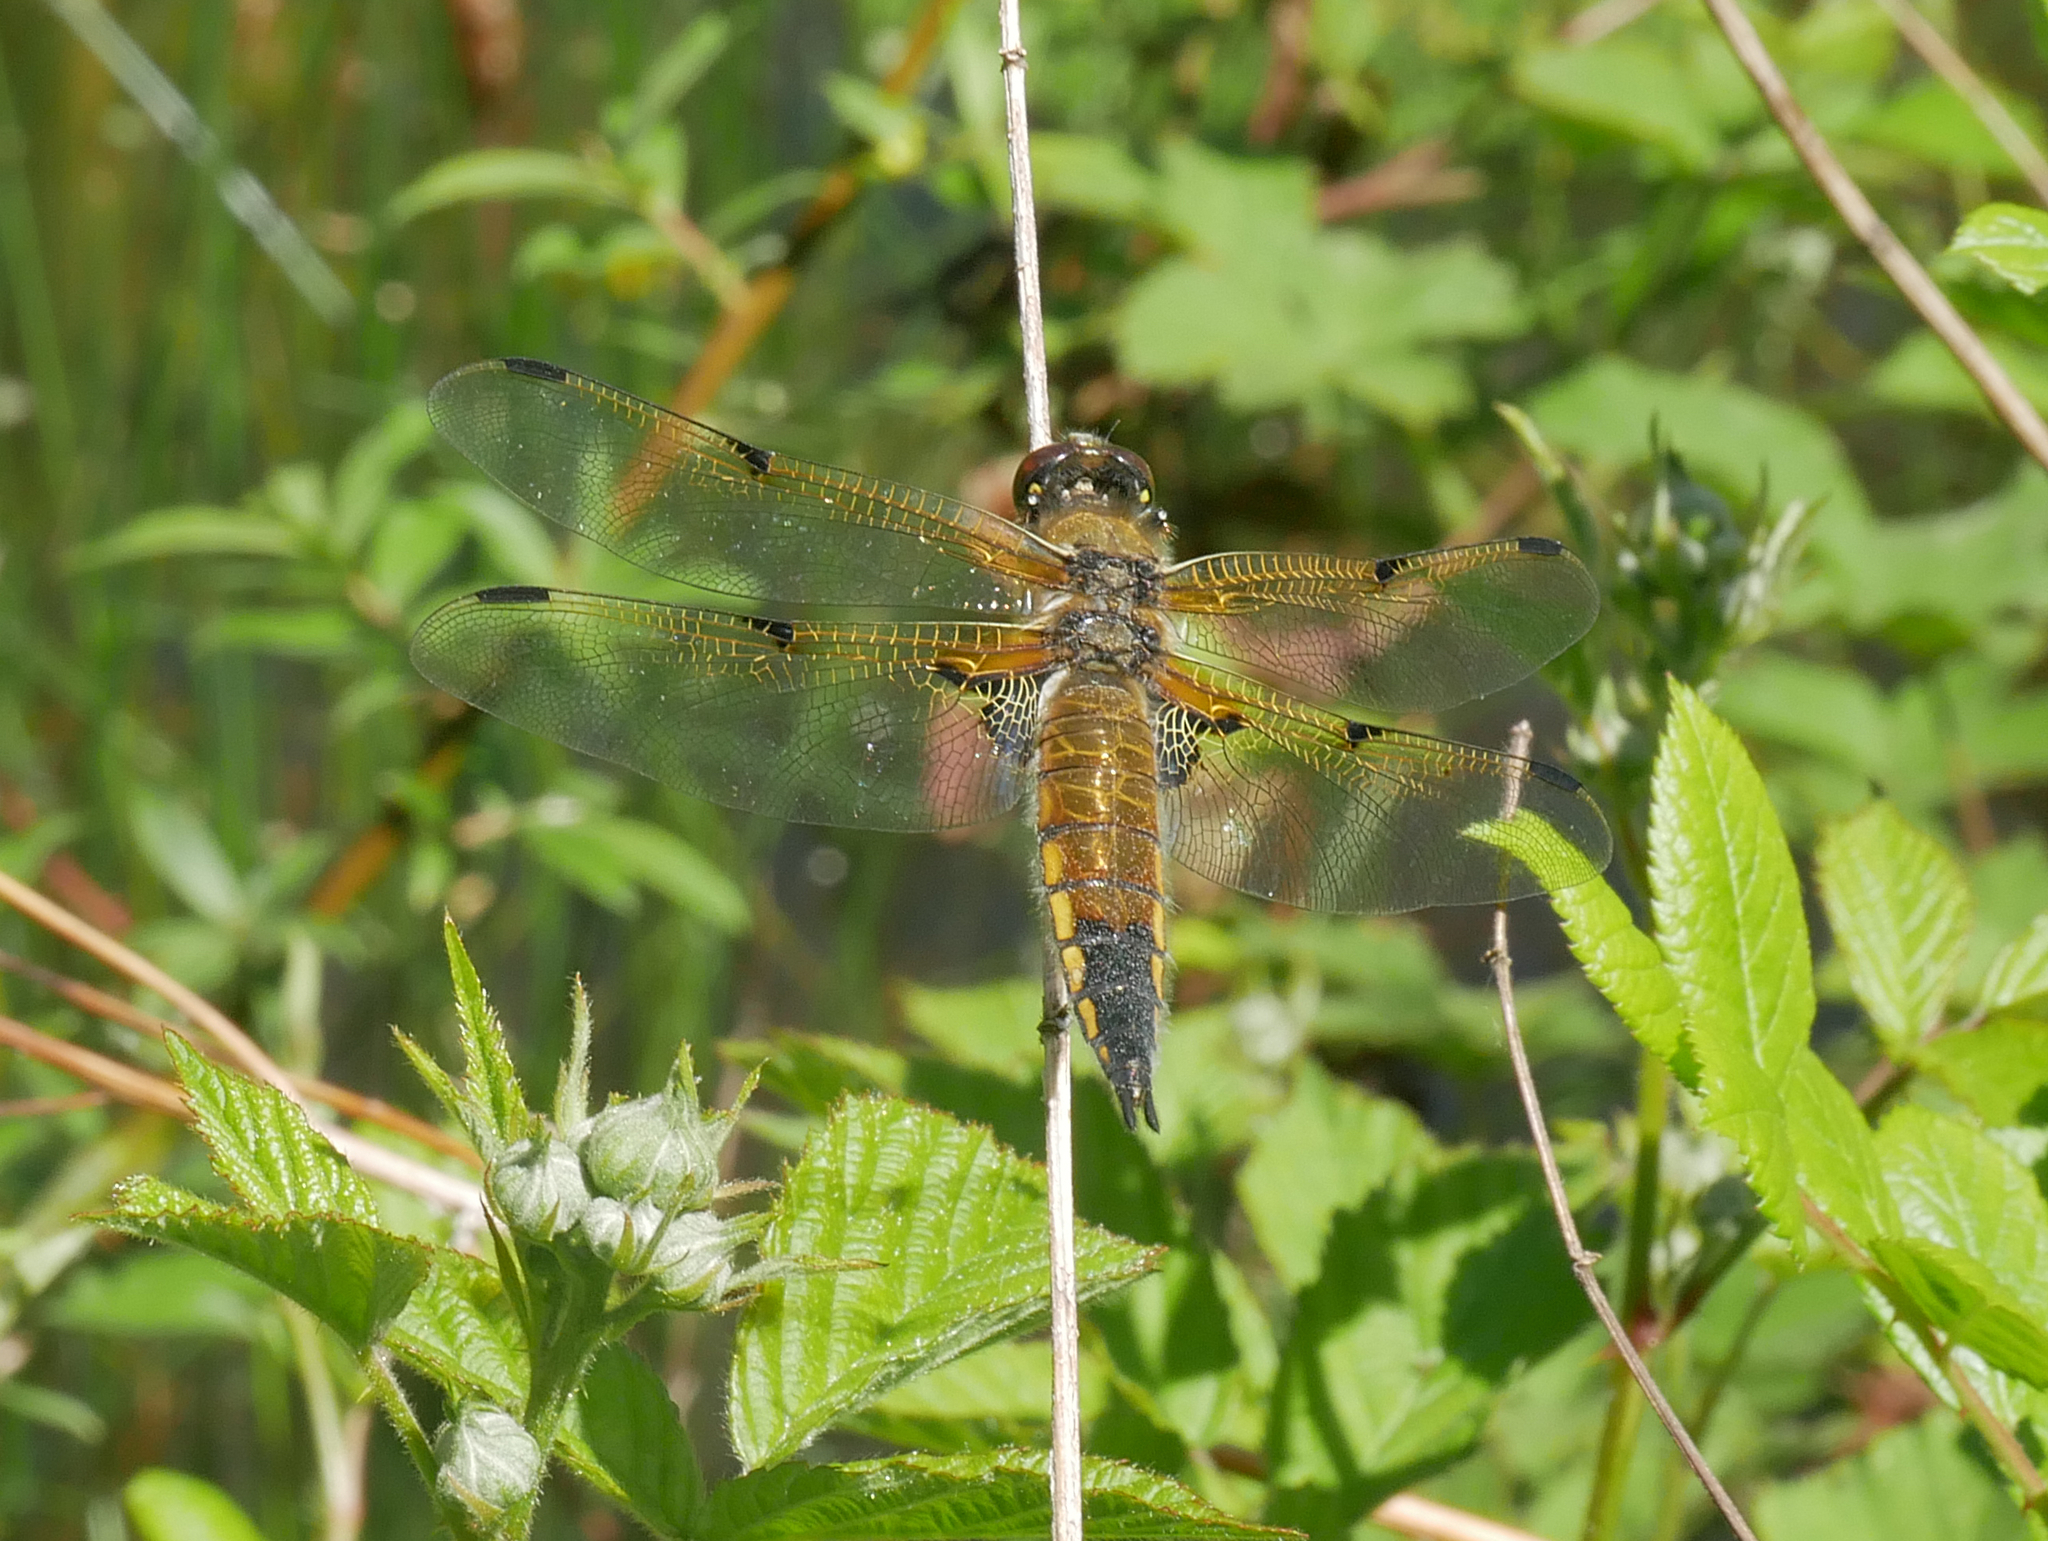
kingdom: Animalia
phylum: Arthropoda
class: Insecta
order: Odonata
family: Libellulidae
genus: Libellula
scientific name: Libellula quadrimaculata
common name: Four-spotted chaser
